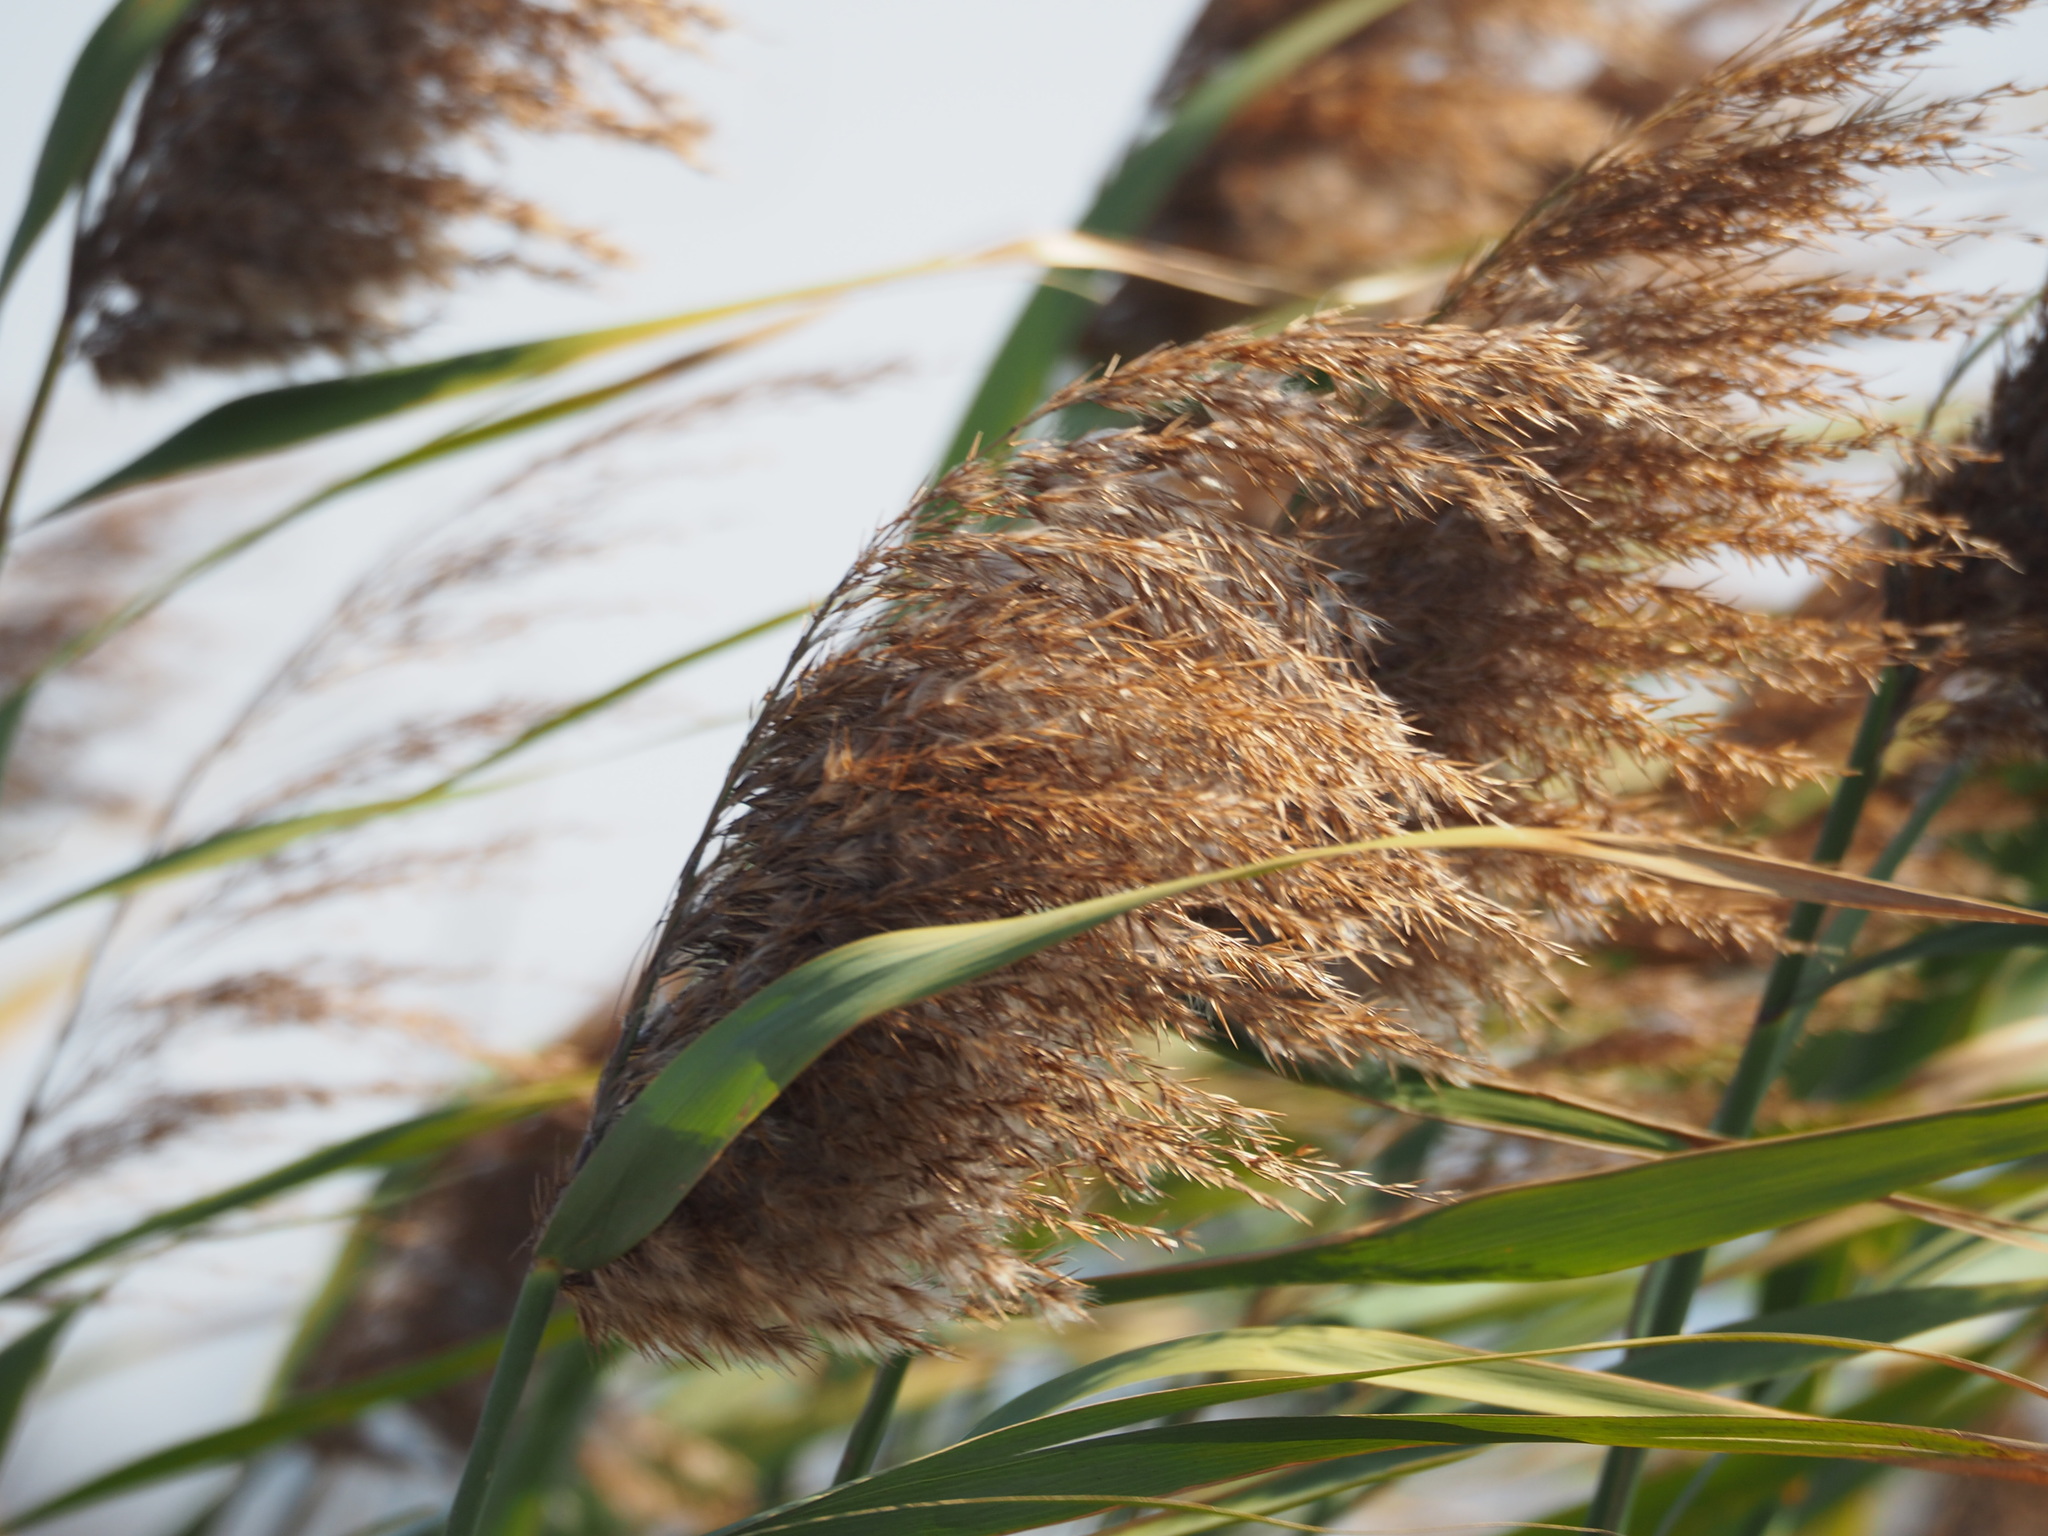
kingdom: Plantae
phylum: Tracheophyta
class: Liliopsida
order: Poales
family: Poaceae
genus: Phragmites
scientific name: Phragmites australis
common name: Common reed
